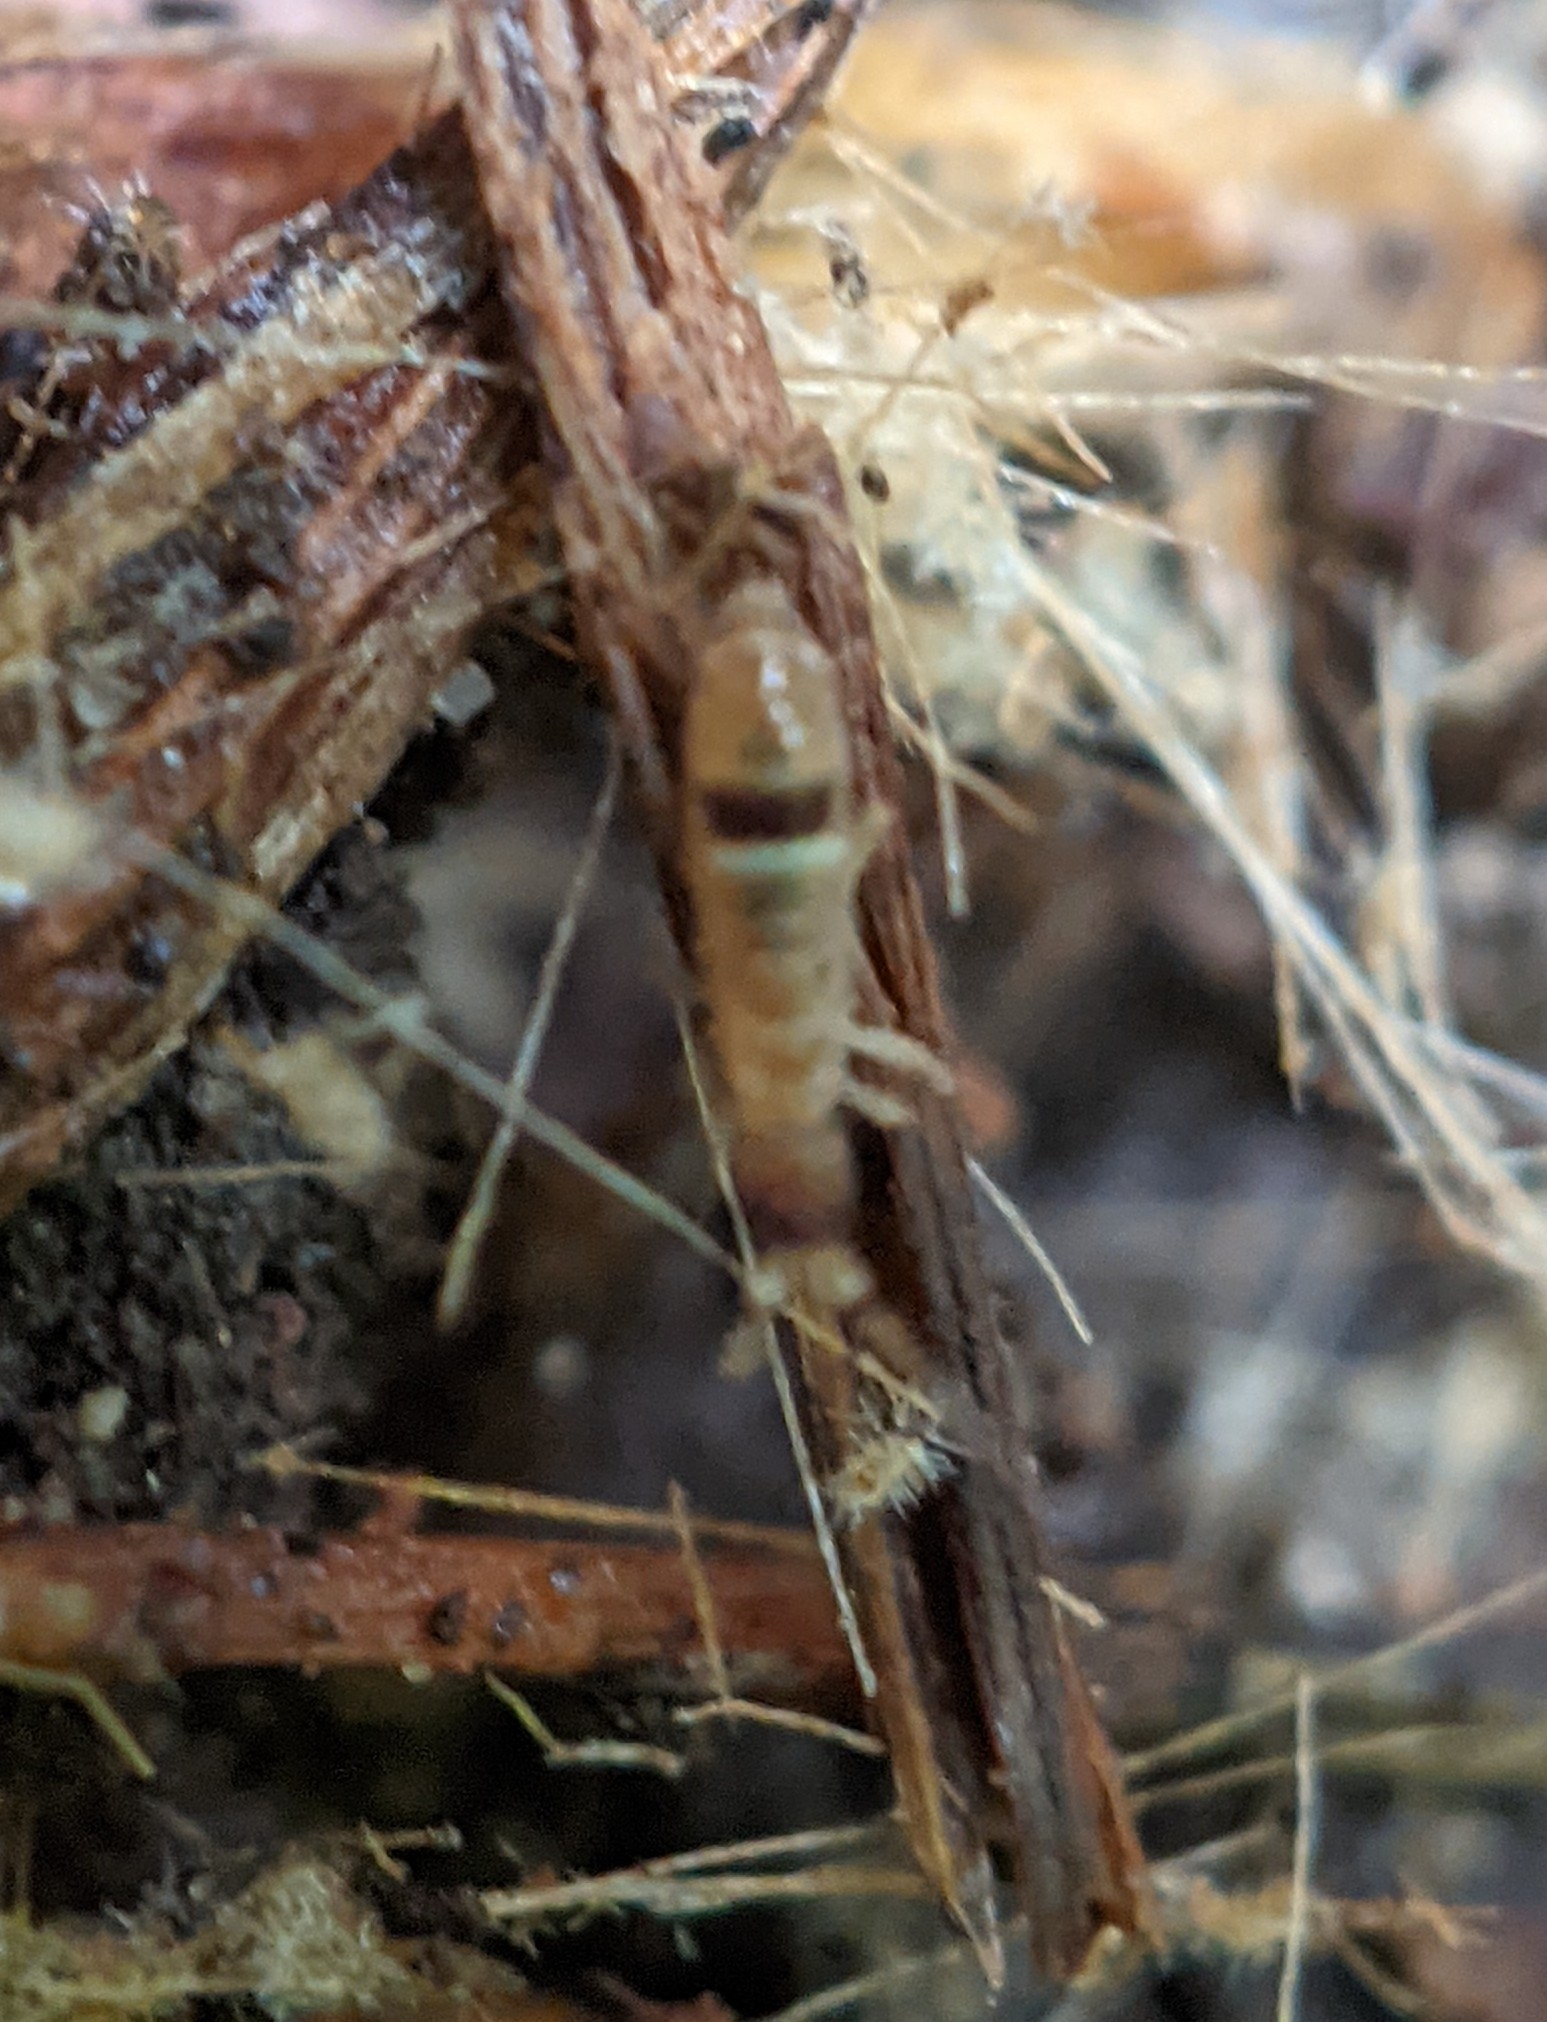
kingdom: Animalia
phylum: Arthropoda
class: Collembola
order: Entomobryomorpha
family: Orchesellidae
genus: Orchesella
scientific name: Orchesella cincta
